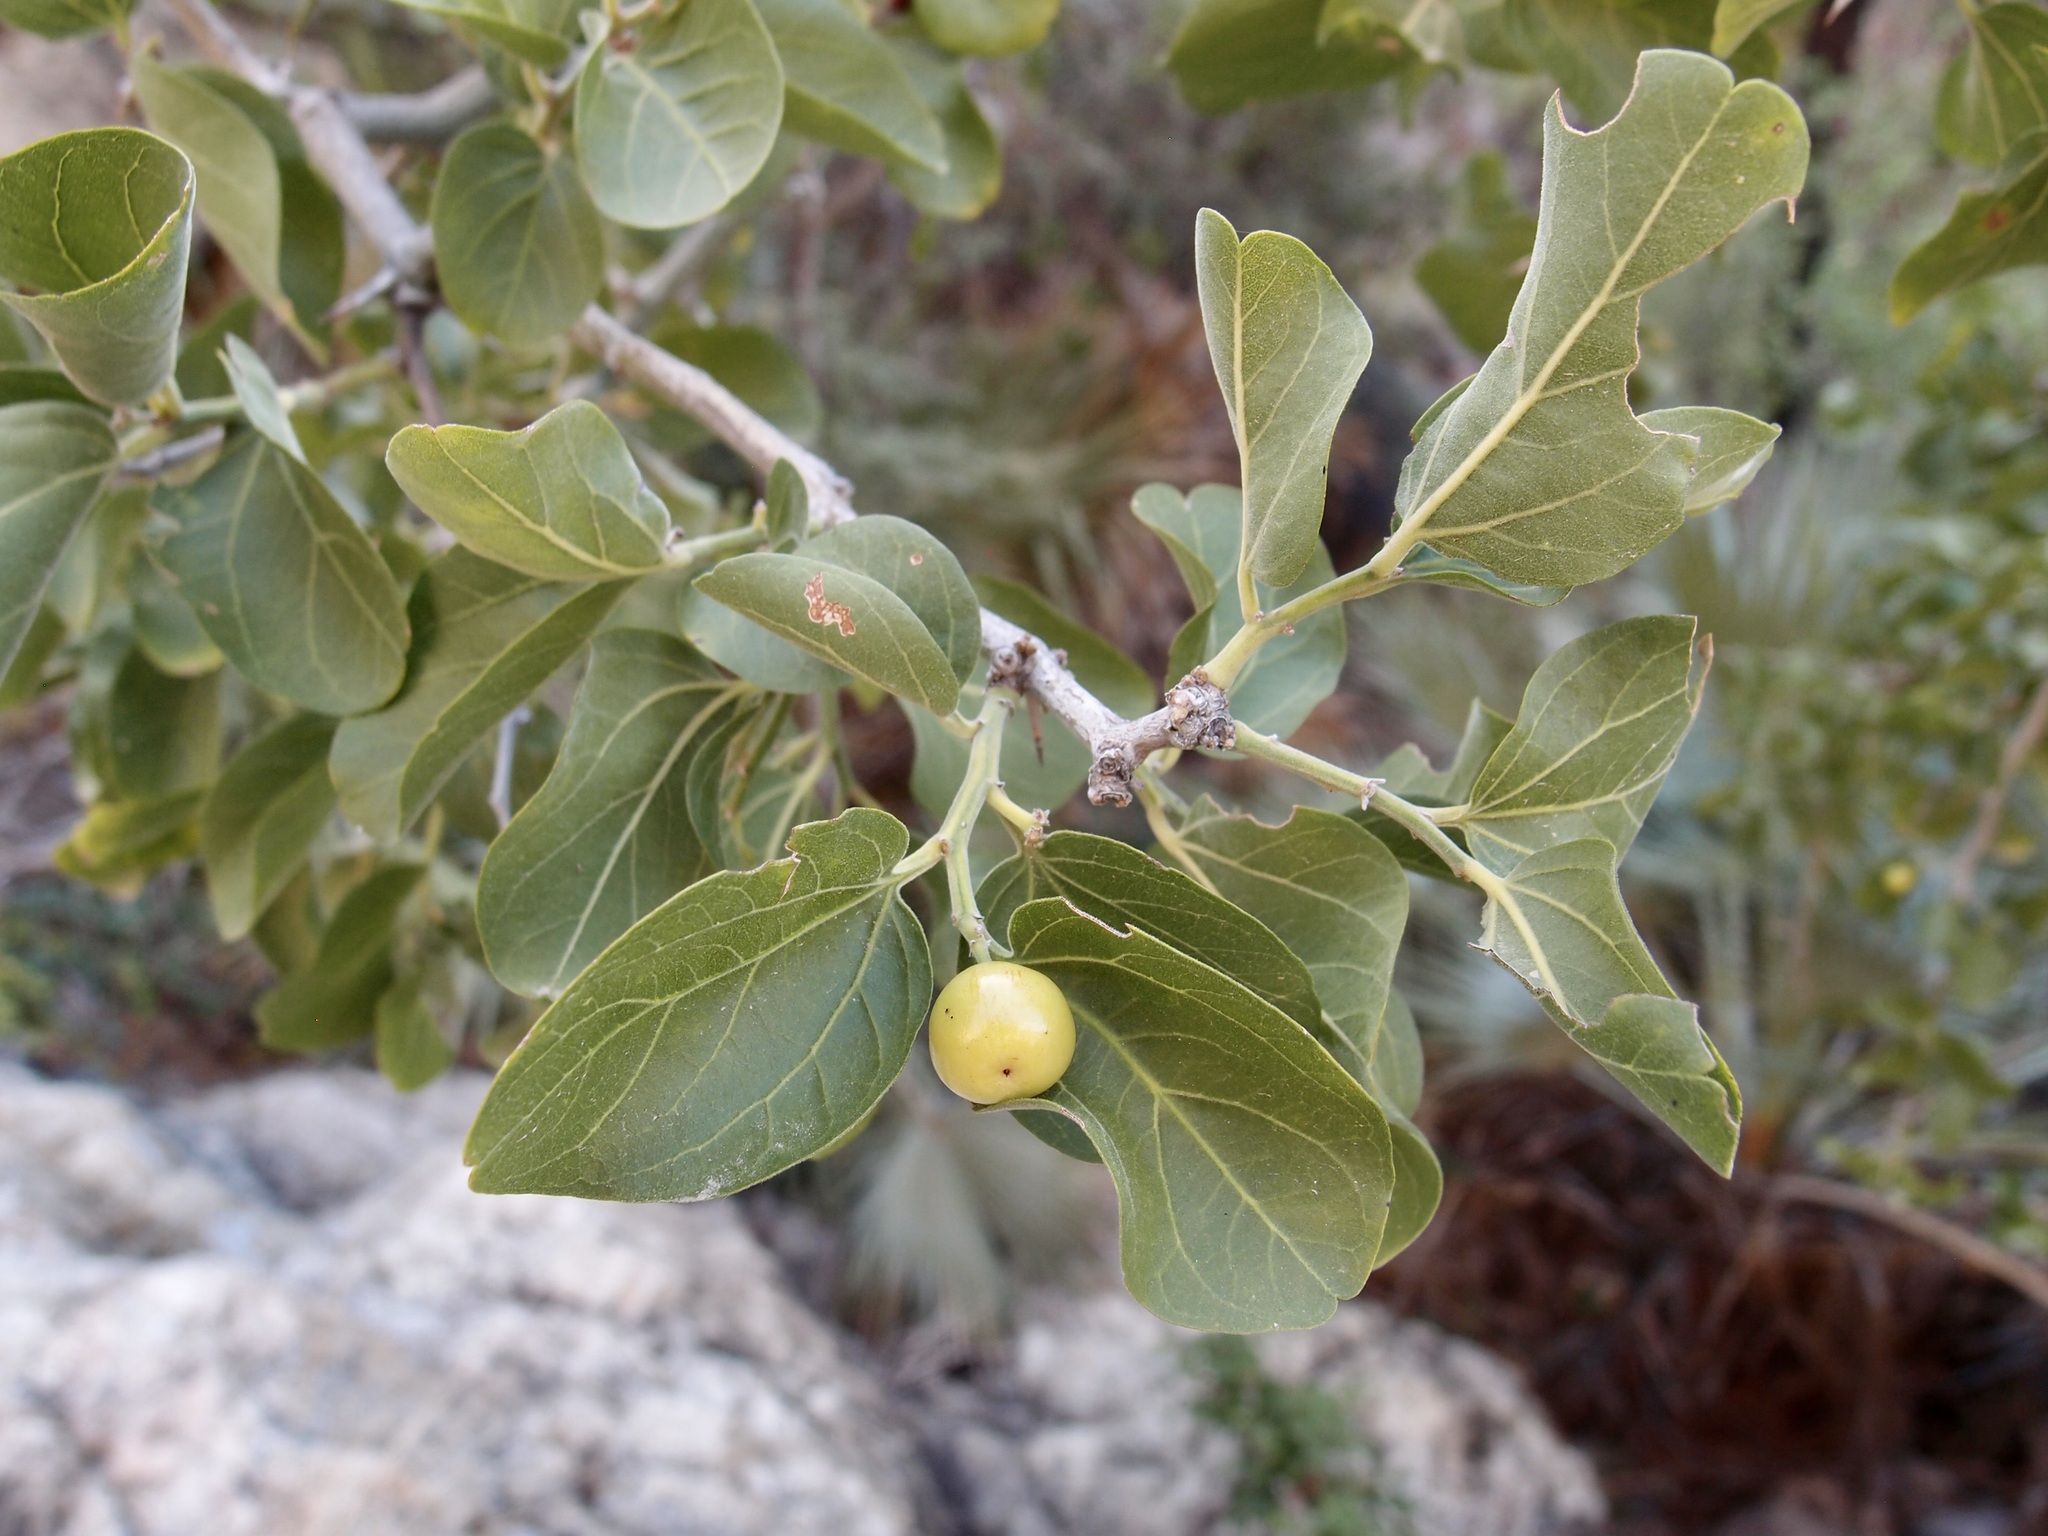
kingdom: Plantae
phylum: Tracheophyta
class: Magnoliopsida
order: Rosales
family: Rhamnaceae
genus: Sarcomphalus
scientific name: Sarcomphalus amole
